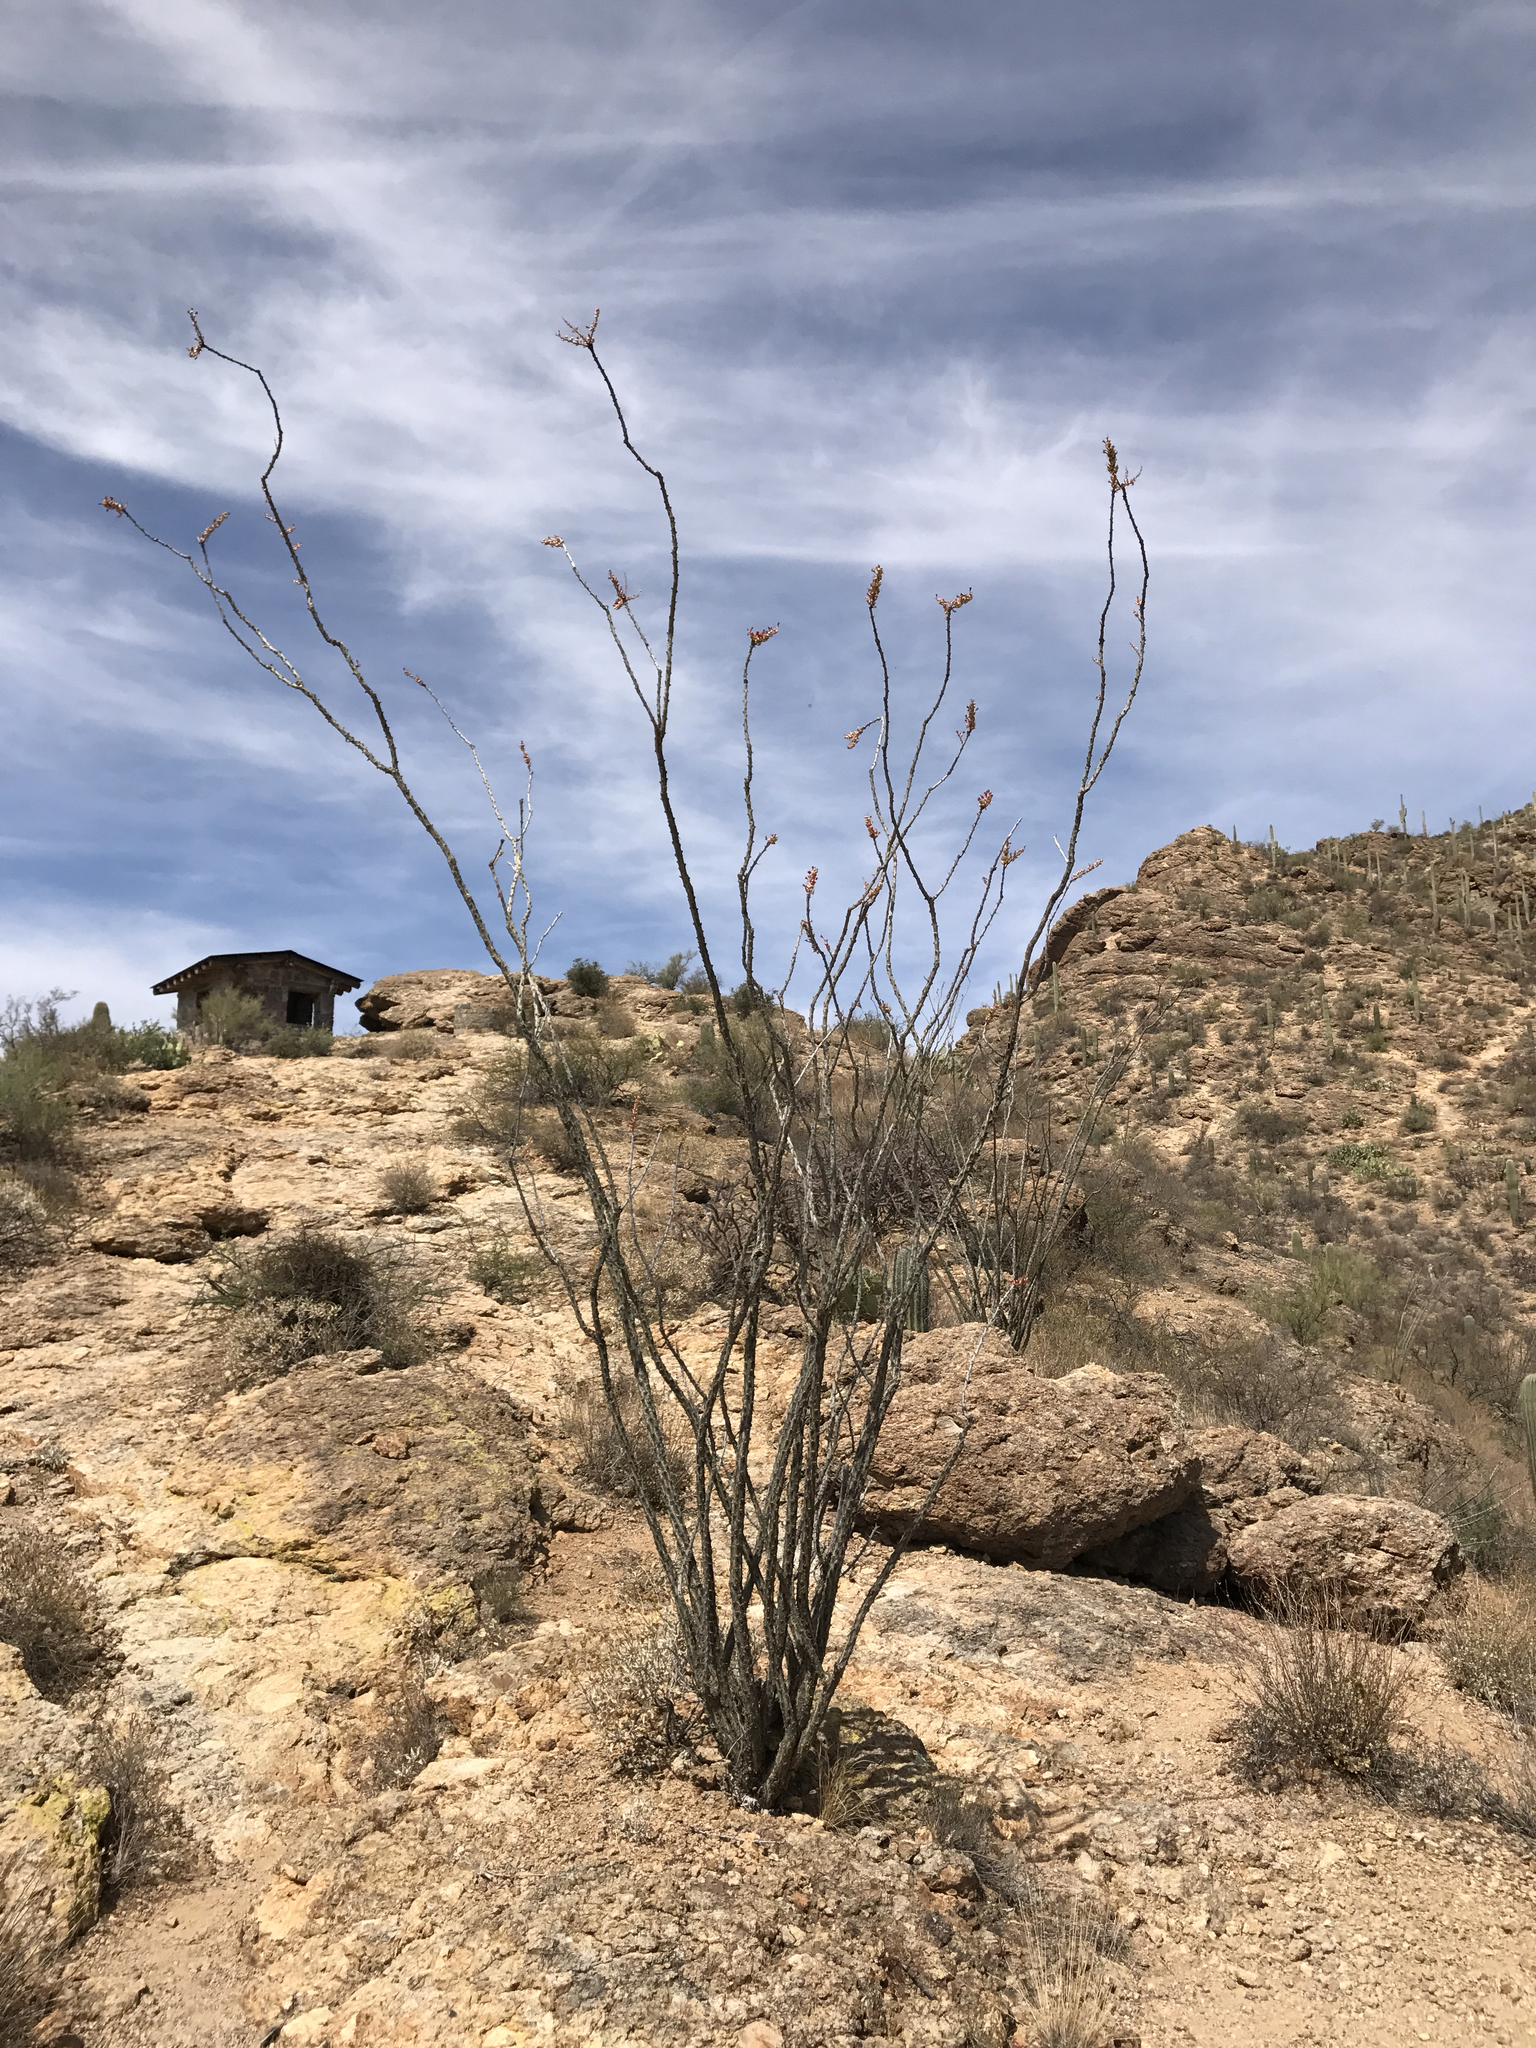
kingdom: Plantae
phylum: Tracheophyta
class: Magnoliopsida
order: Ericales
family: Fouquieriaceae
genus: Fouquieria
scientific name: Fouquieria splendens
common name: Vine-cactus
